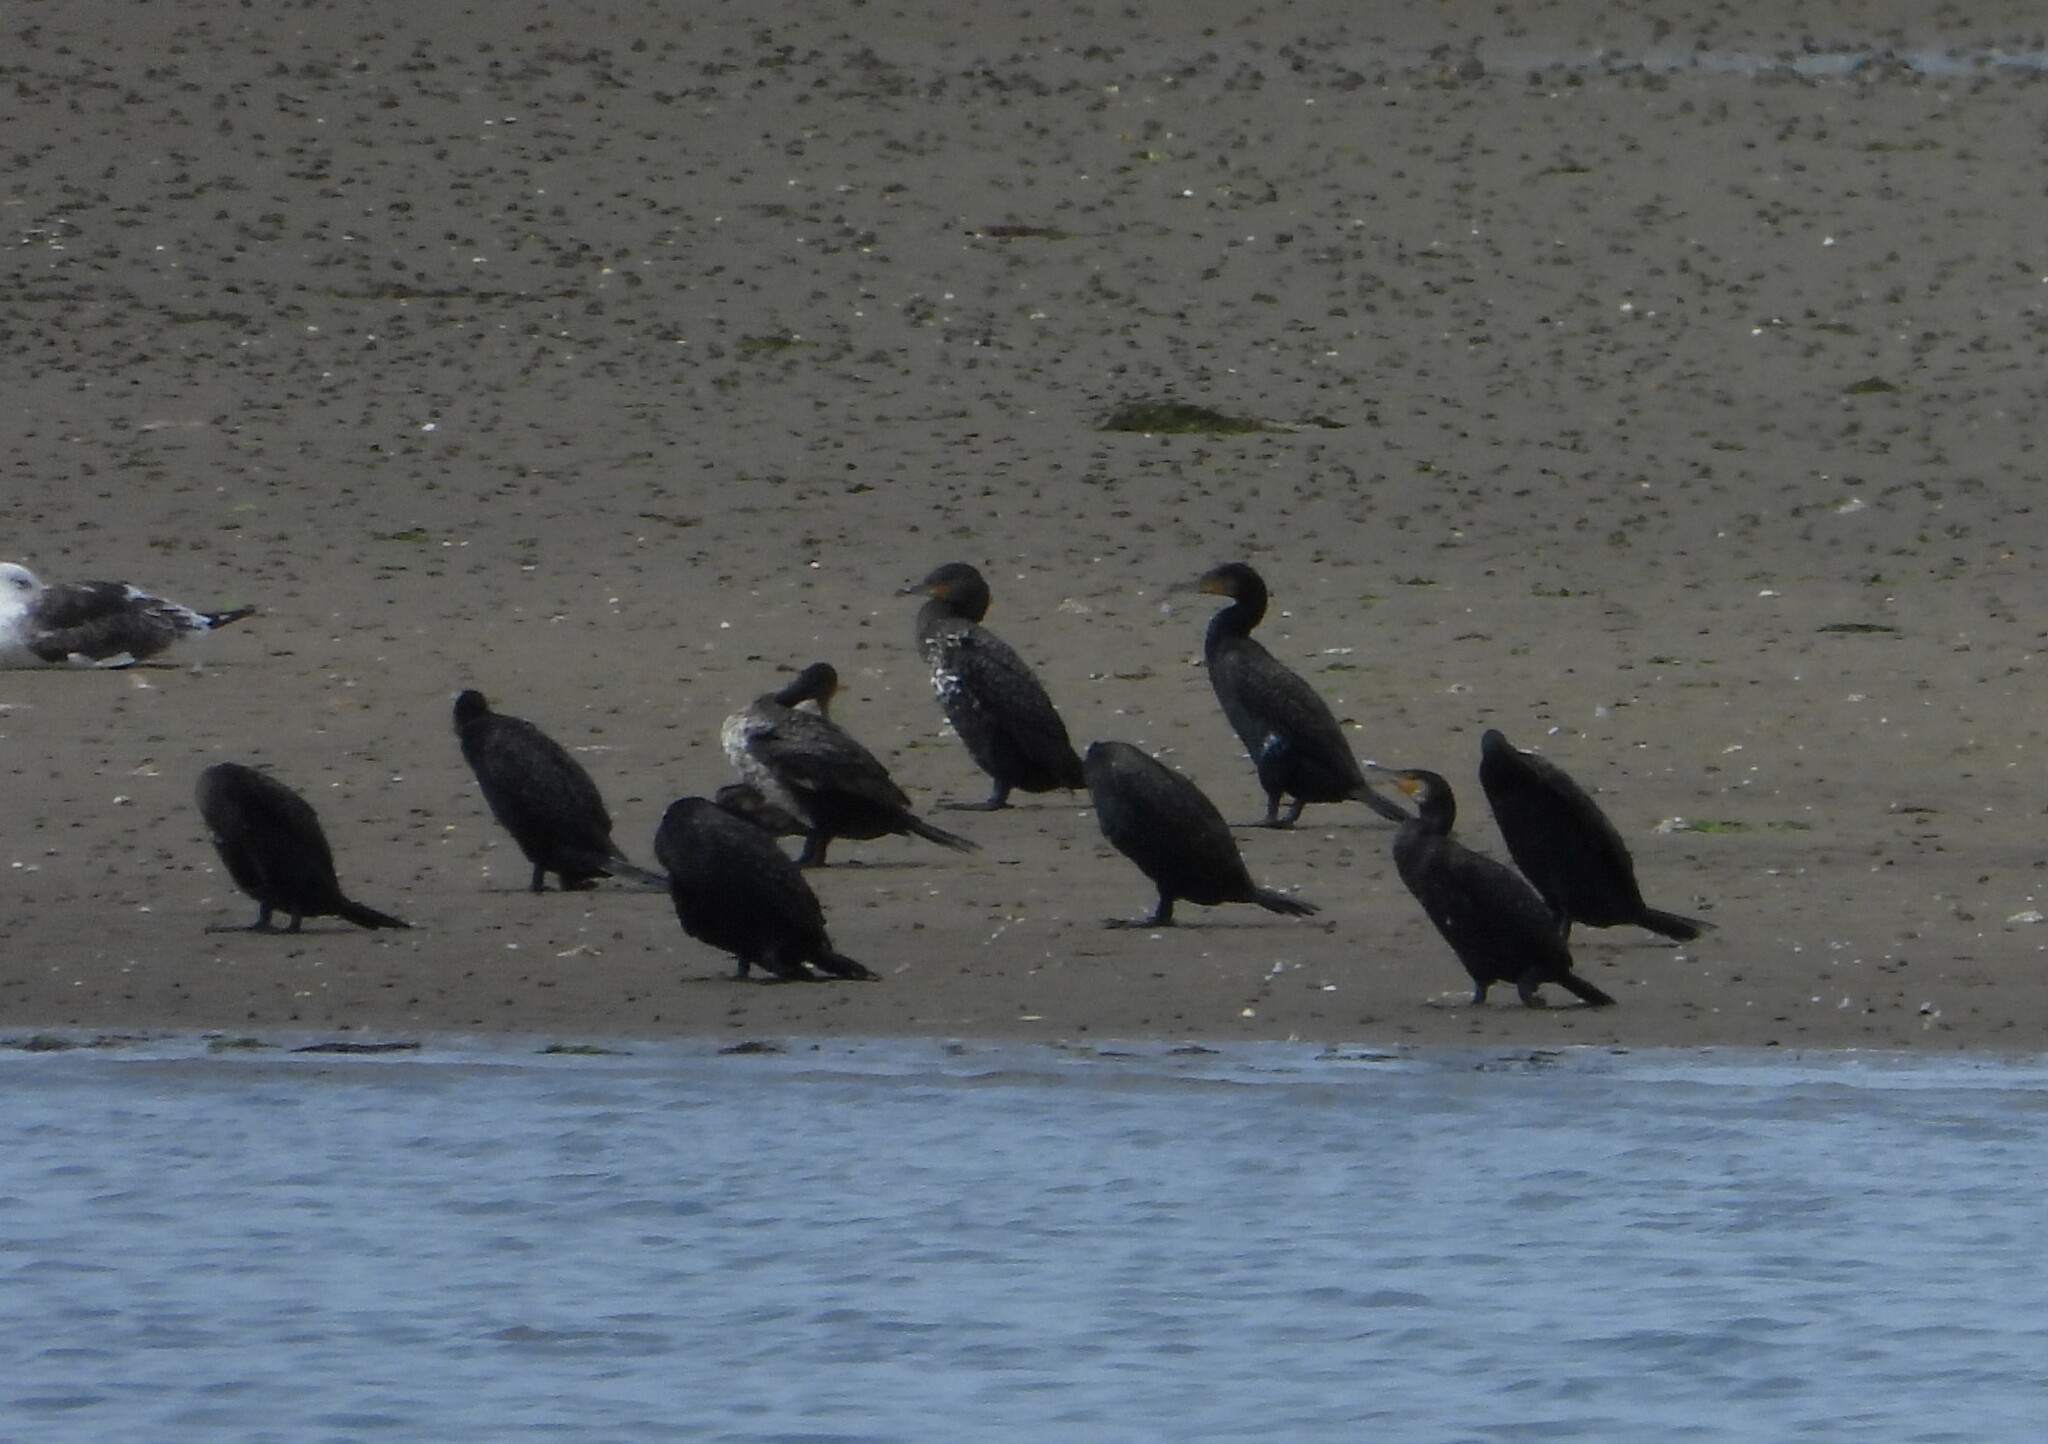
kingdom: Animalia
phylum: Chordata
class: Aves
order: Suliformes
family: Phalacrocoracidae
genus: Phalacrocorax
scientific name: Phalacrocorax carbo
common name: Great cormorant
